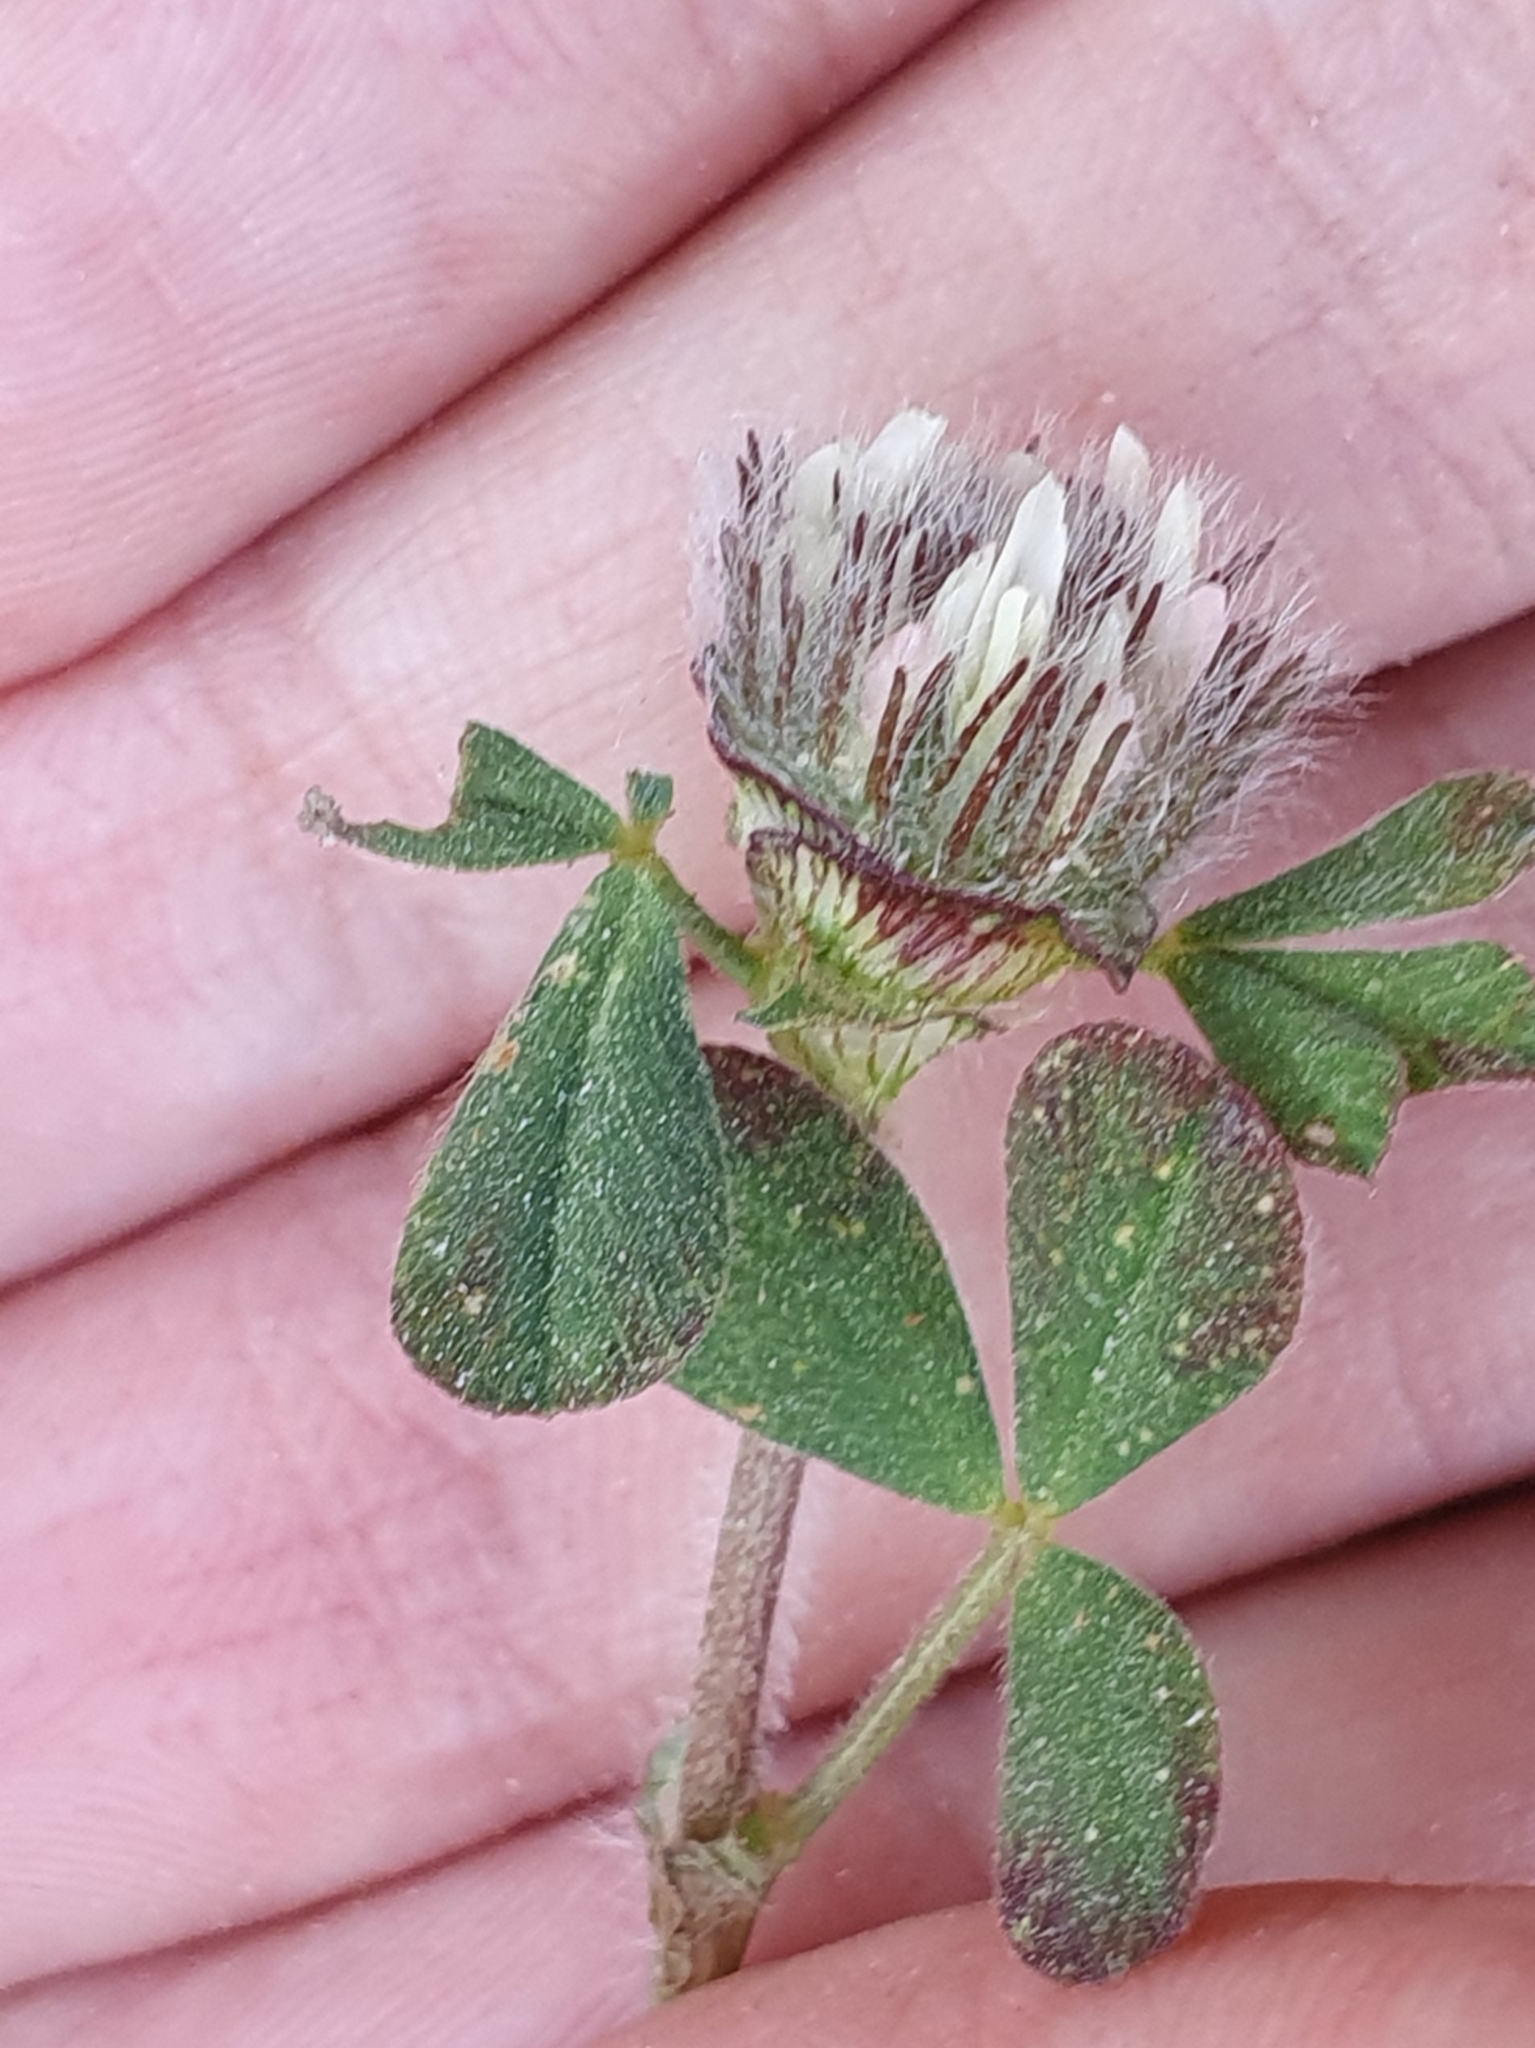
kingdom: Plantae
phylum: Tracheophyta
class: Magnoliopsida
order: Fabales
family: Fabaceae
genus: Trifolium
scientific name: Trifolium cherleri
